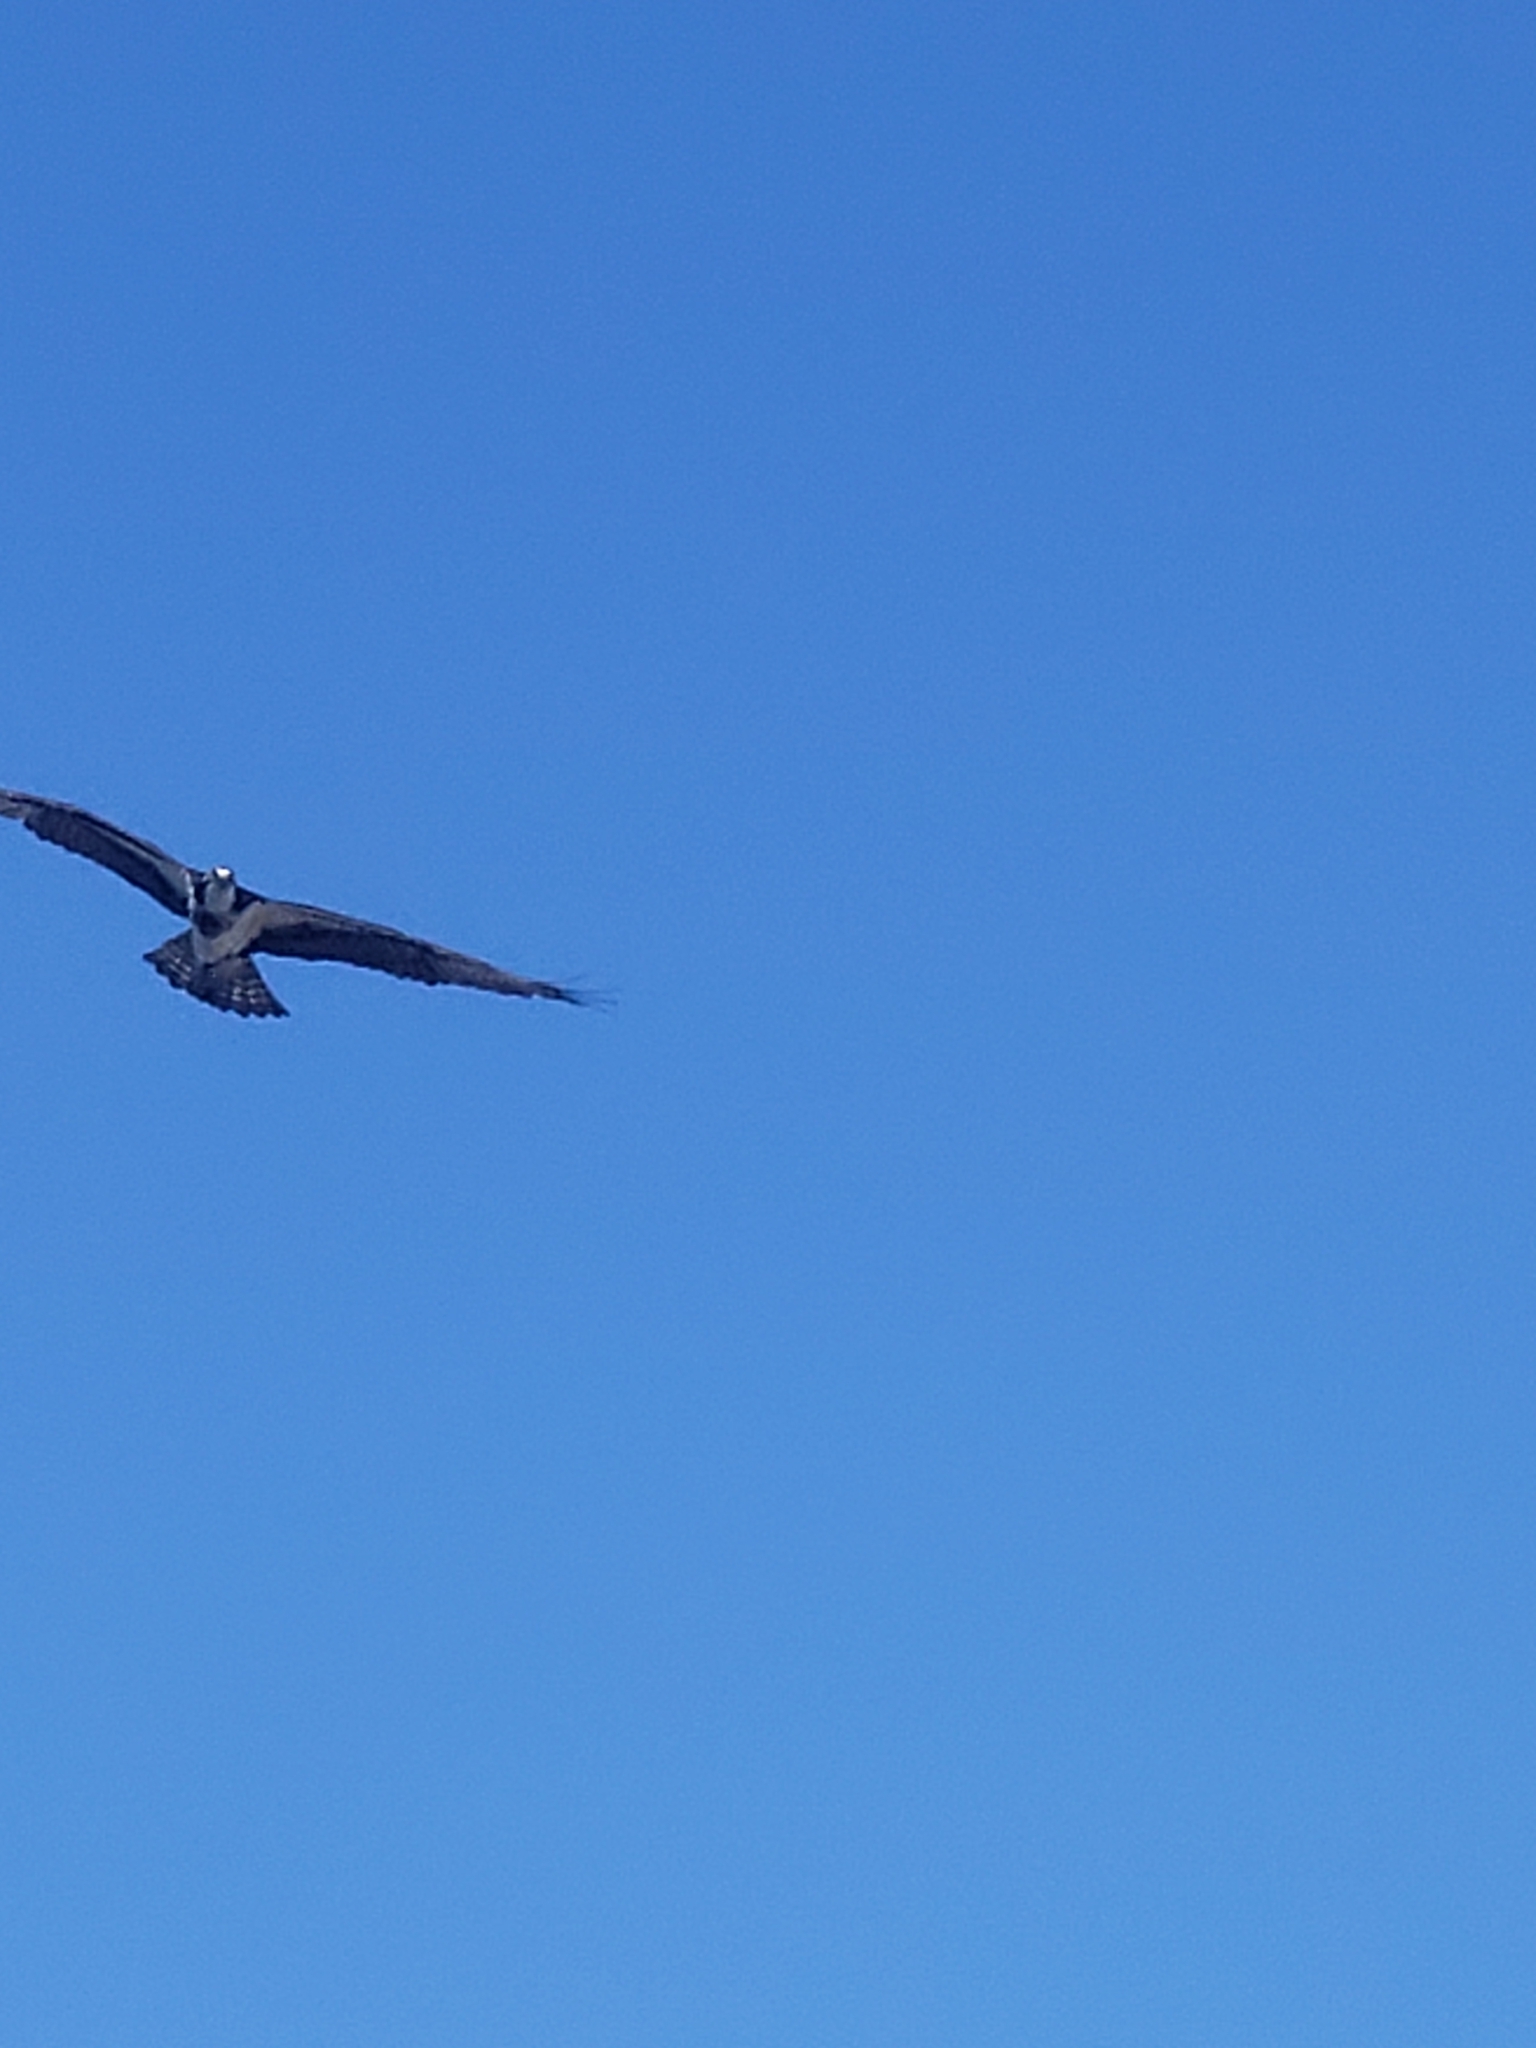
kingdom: Animalia
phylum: Chordata
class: Aves
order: Accipitriformes
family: Pandionidae
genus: Pandion
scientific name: Pandion haliaetus
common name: Osprey
